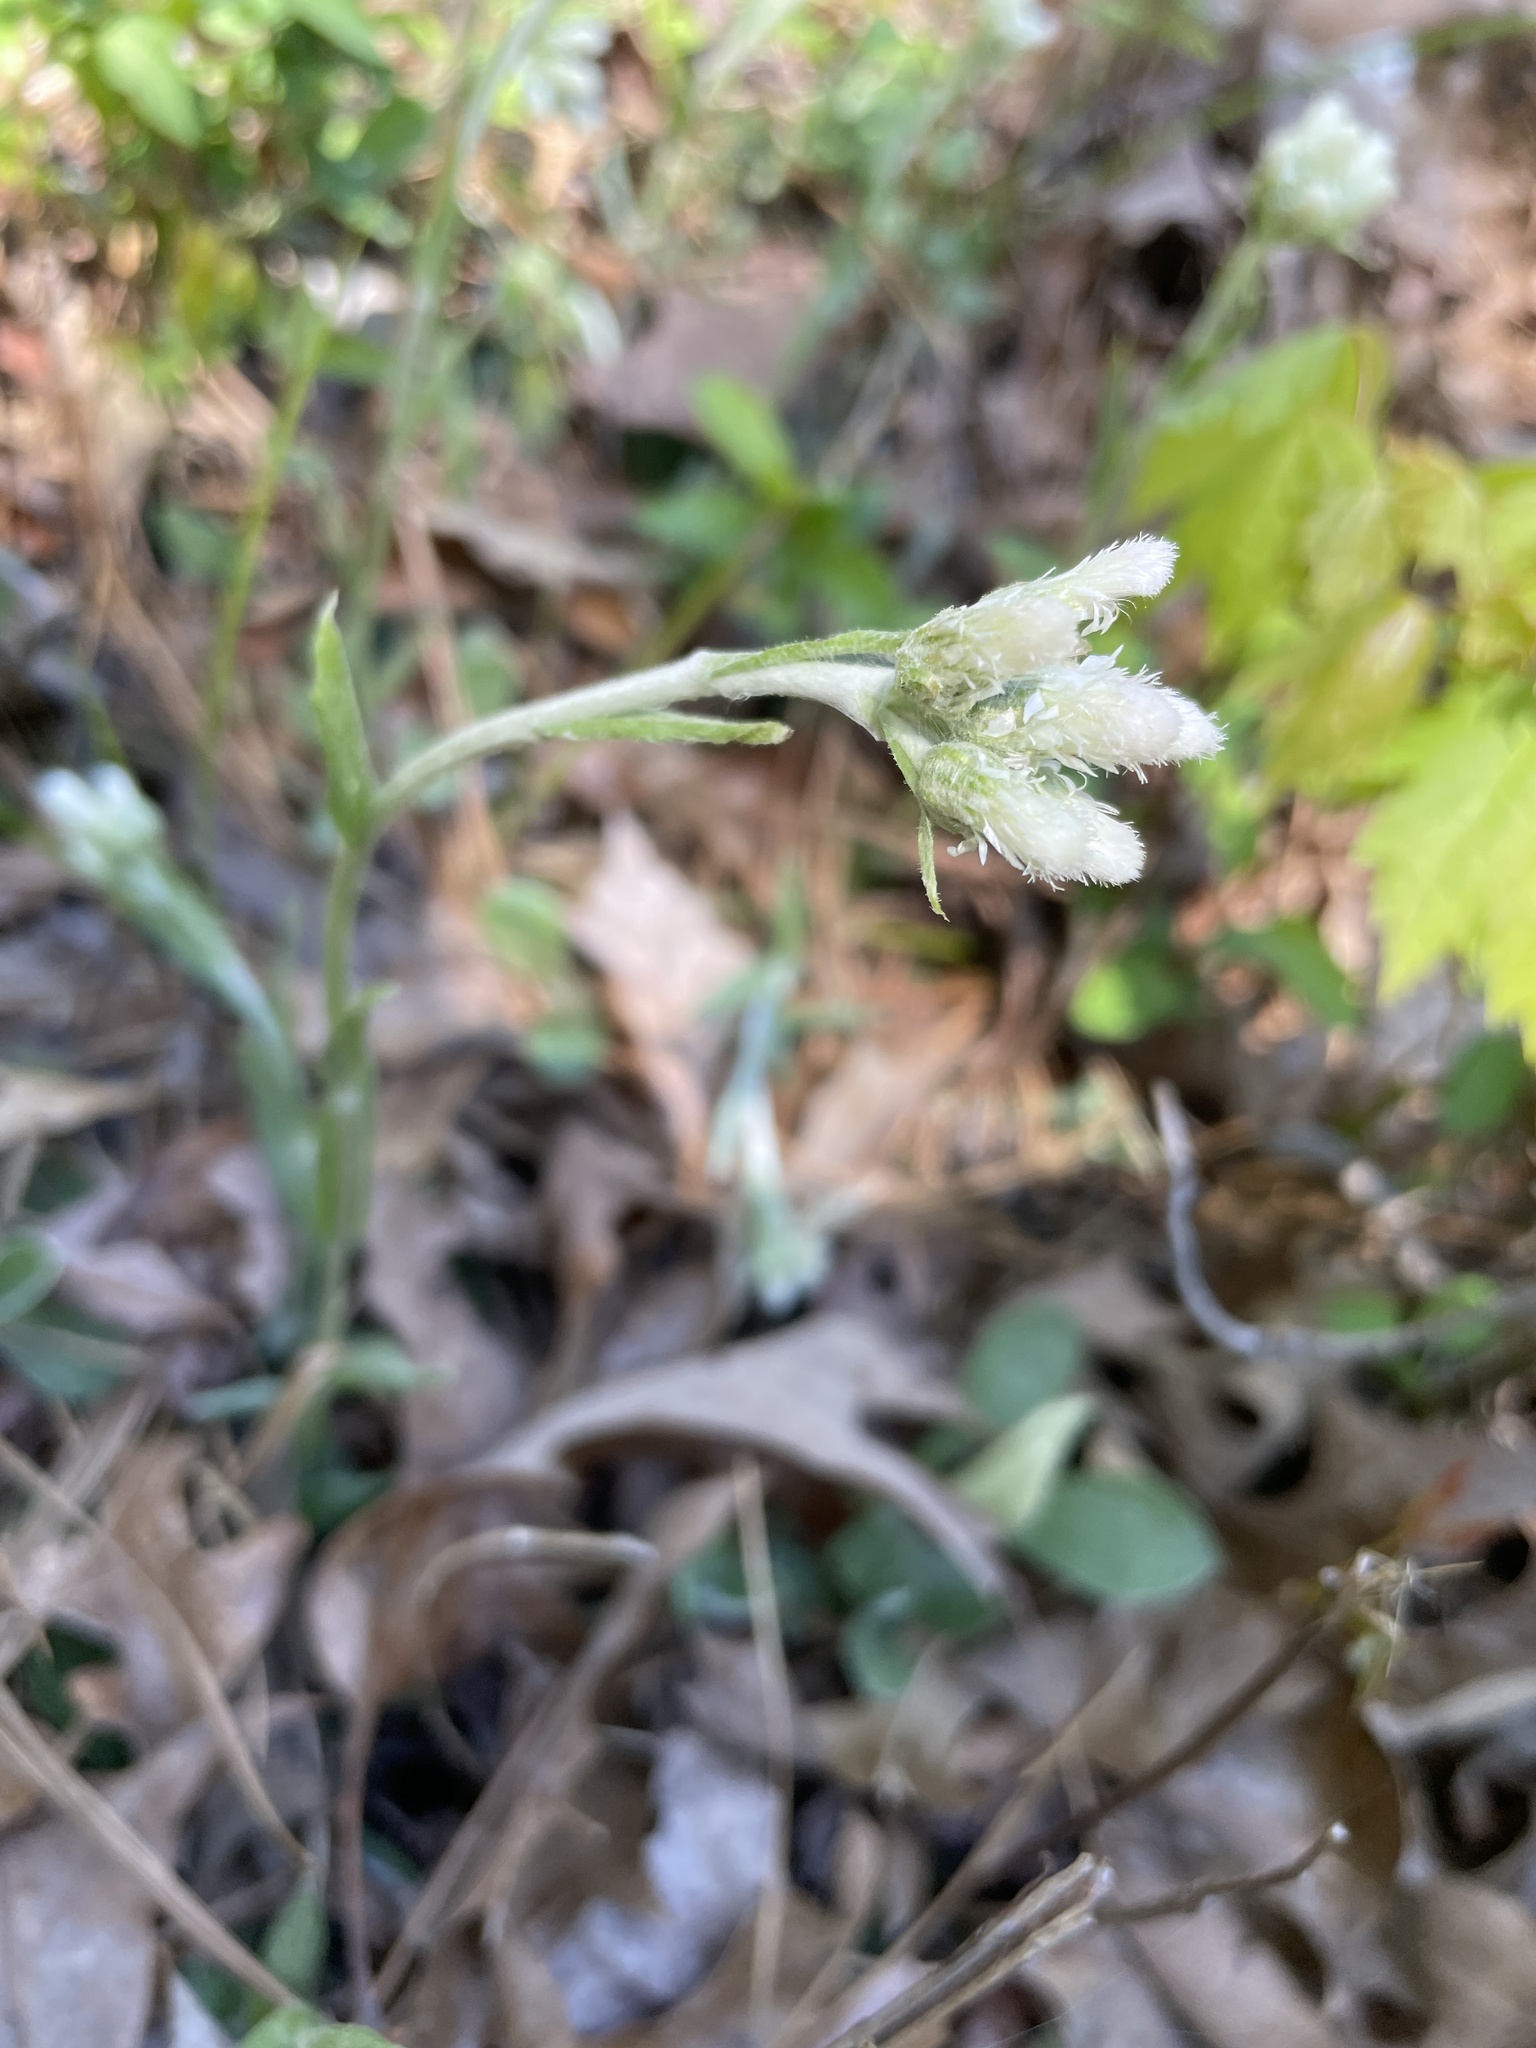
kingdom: Plantae
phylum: Tracheophyta
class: Magnoliopsida
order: Asterales
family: Asteraceae
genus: Antennaria
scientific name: Antennaria parlinii
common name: Parlin's pussytoes
